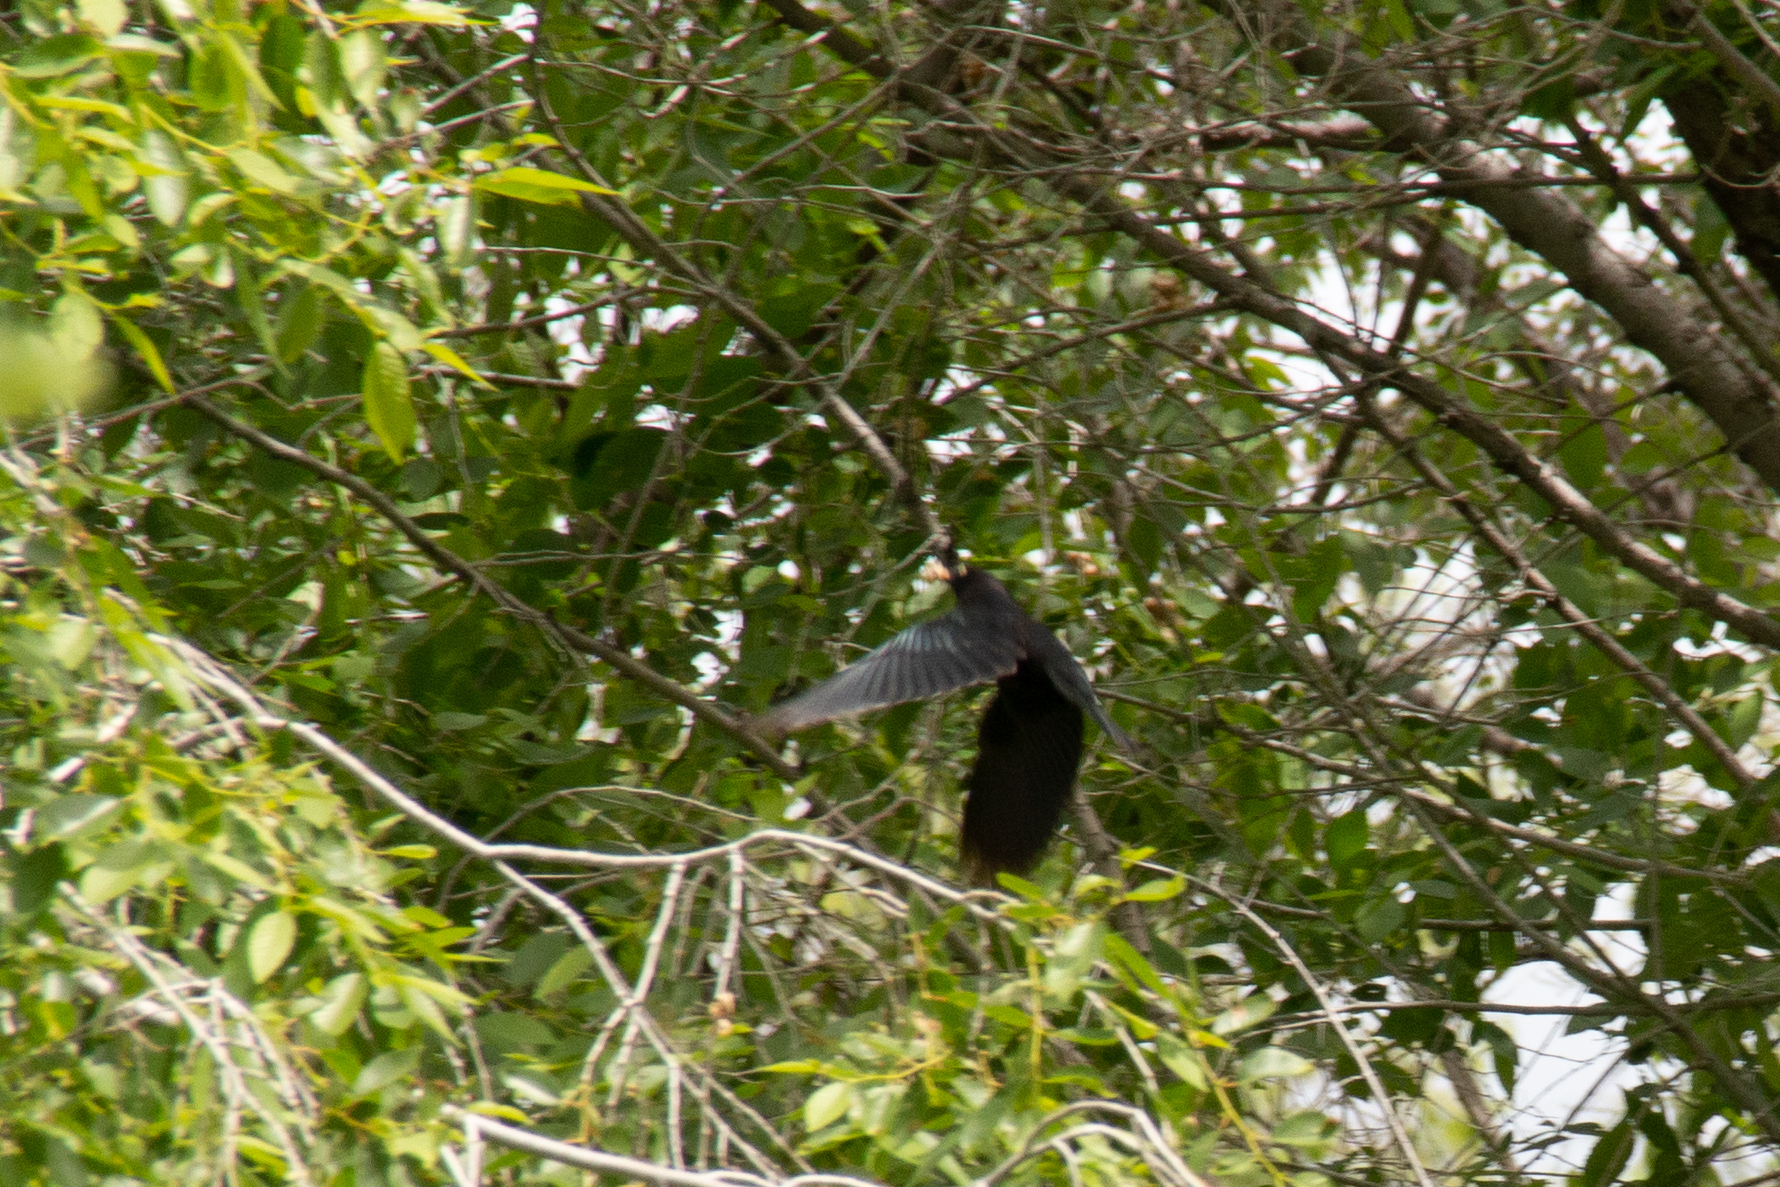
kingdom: Animalia
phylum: Chordata
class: Aves
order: Passeriformes
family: Icteridae
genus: Euphagus
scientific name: Euphagus cyanocephalus
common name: Brewer's blackbird
